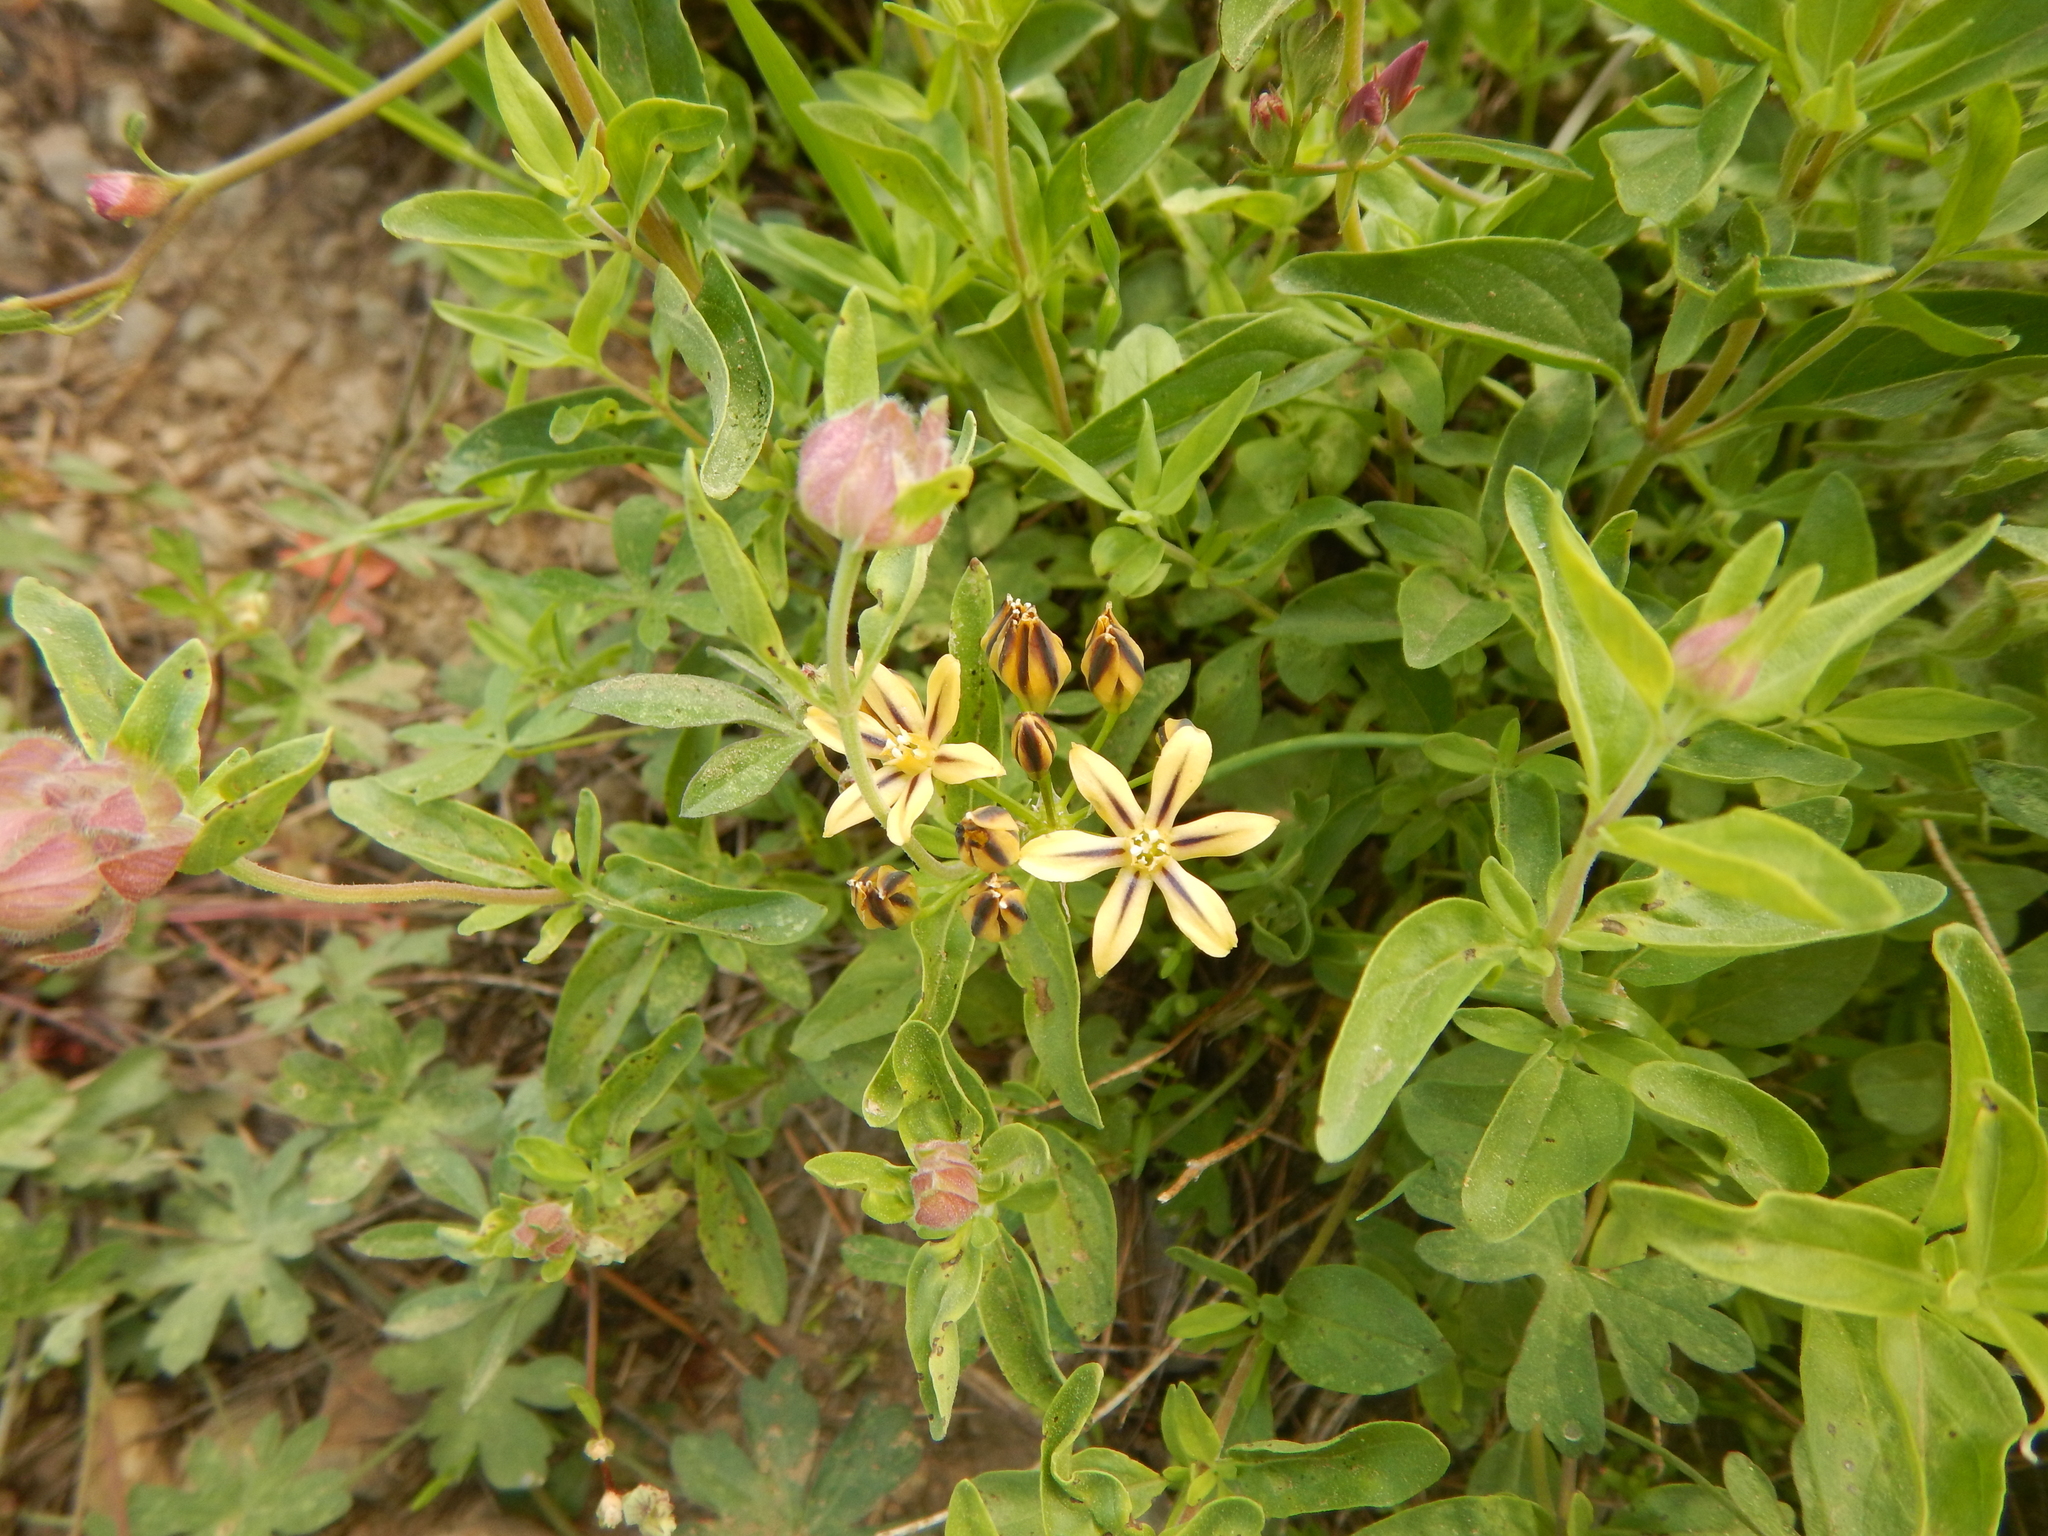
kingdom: Plantae
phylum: Tracheophyta
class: Liliopsida
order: Asparagales
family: Asparagaceae
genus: Triteleia
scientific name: Triteleia ixioides
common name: Yellow-brodiaea
